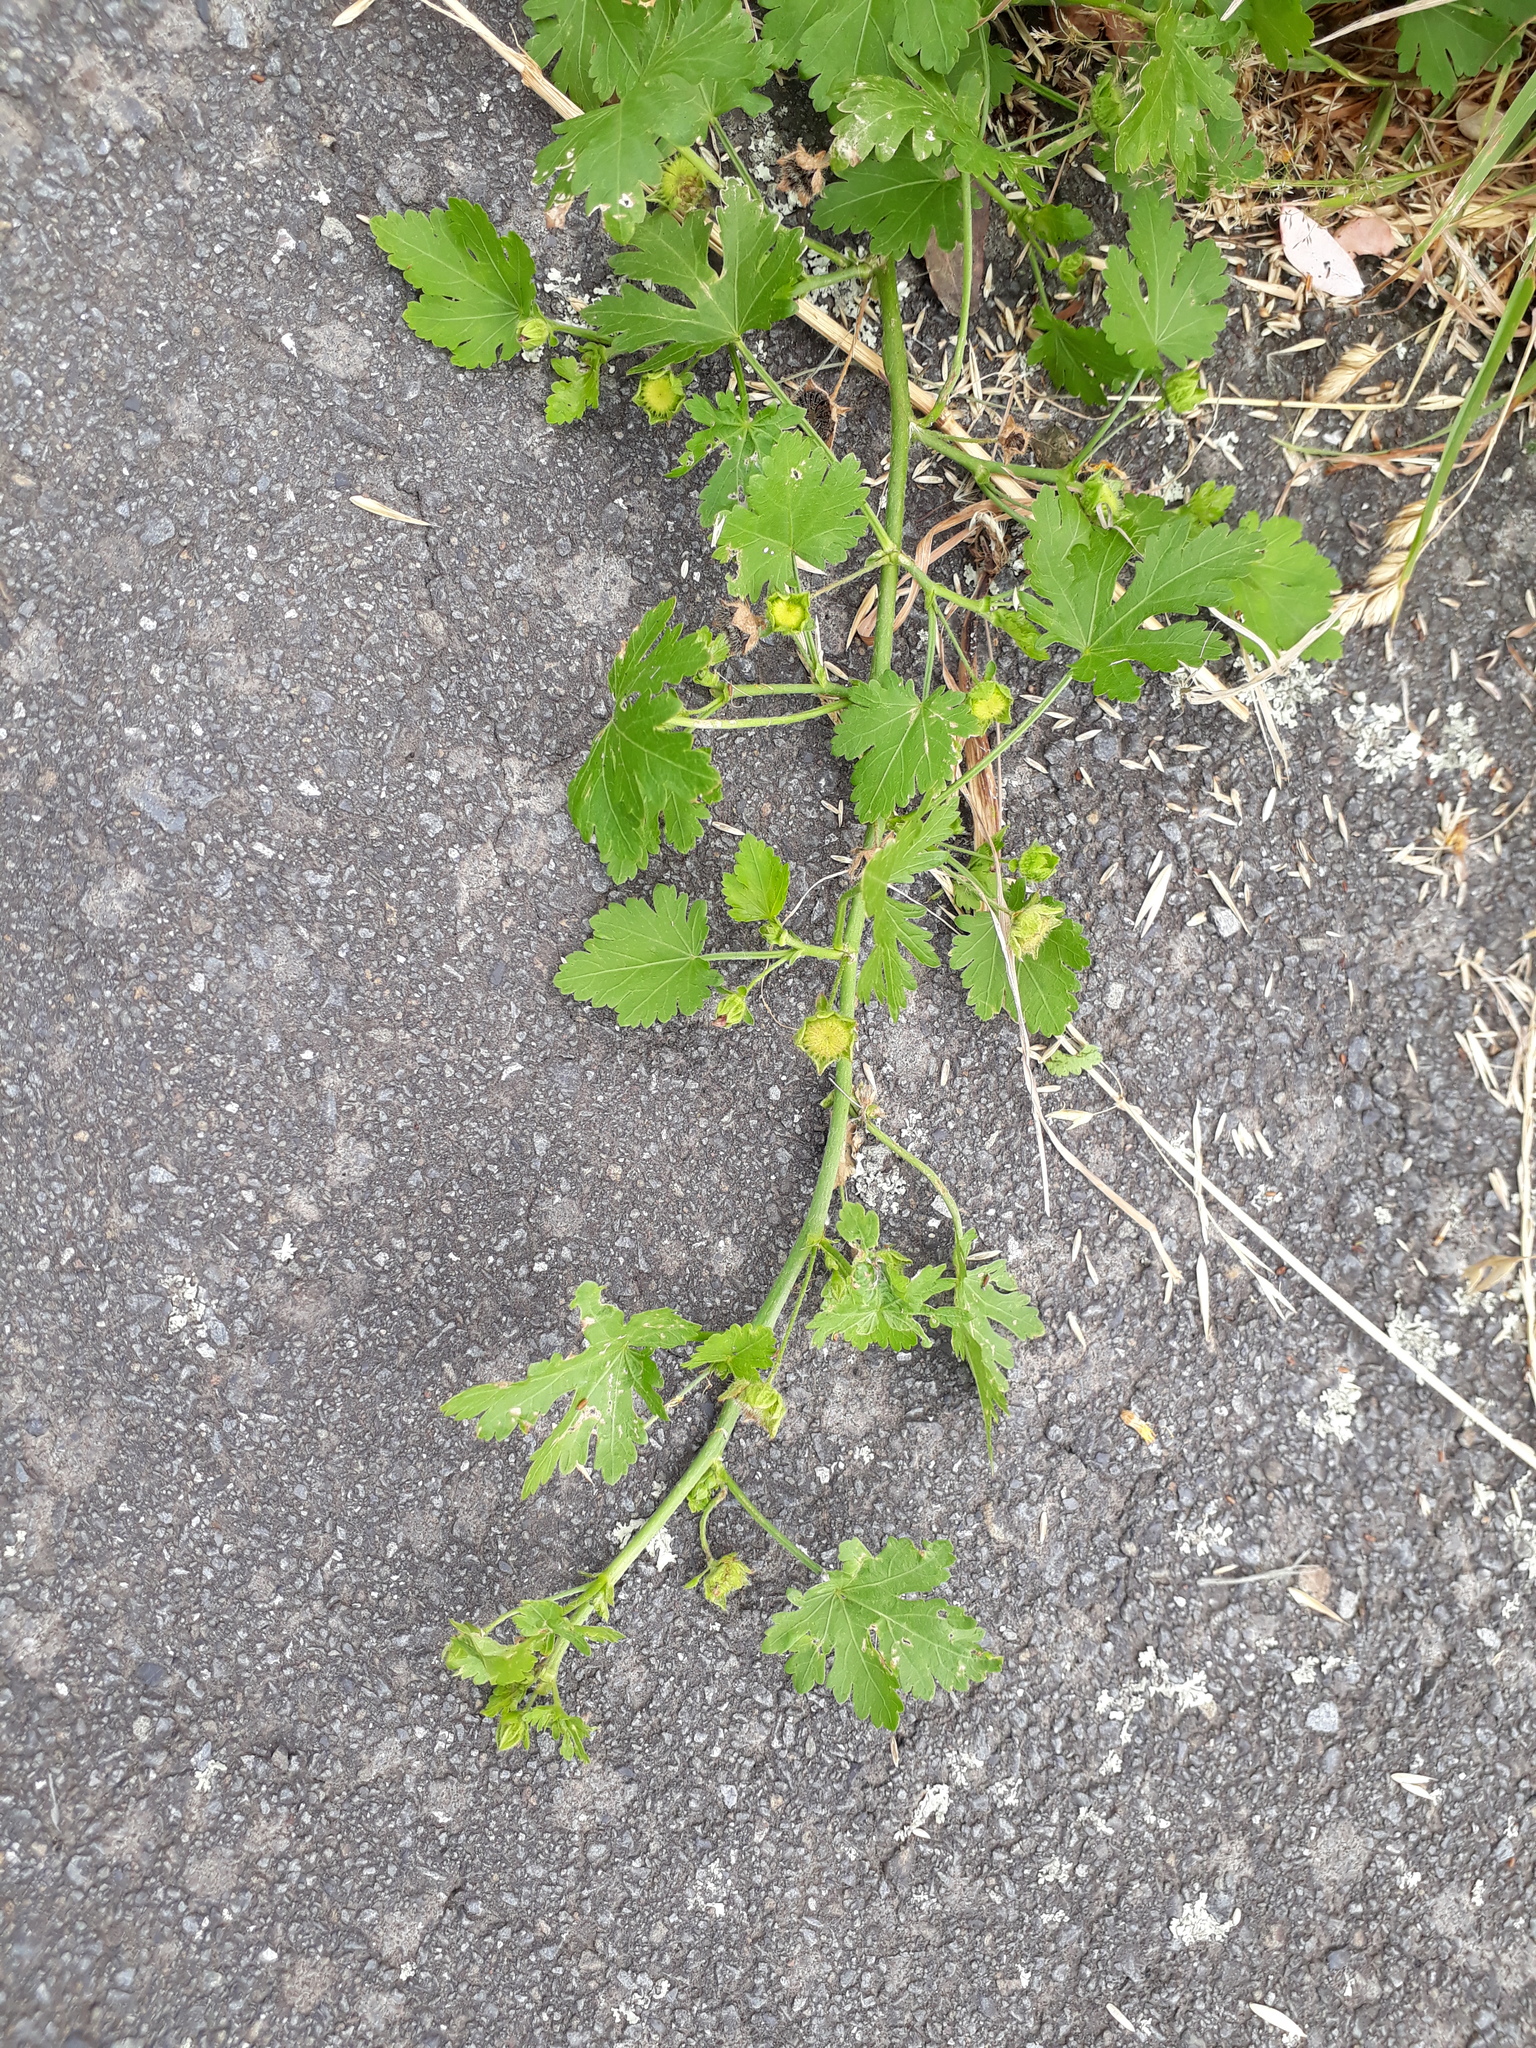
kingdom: Plantae
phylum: Tracheophyta
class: Magnoliopsida
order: Malvales
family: Malvaceae
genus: Modiola
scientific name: Modiola caroliniana
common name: Carolina bristlemallow
